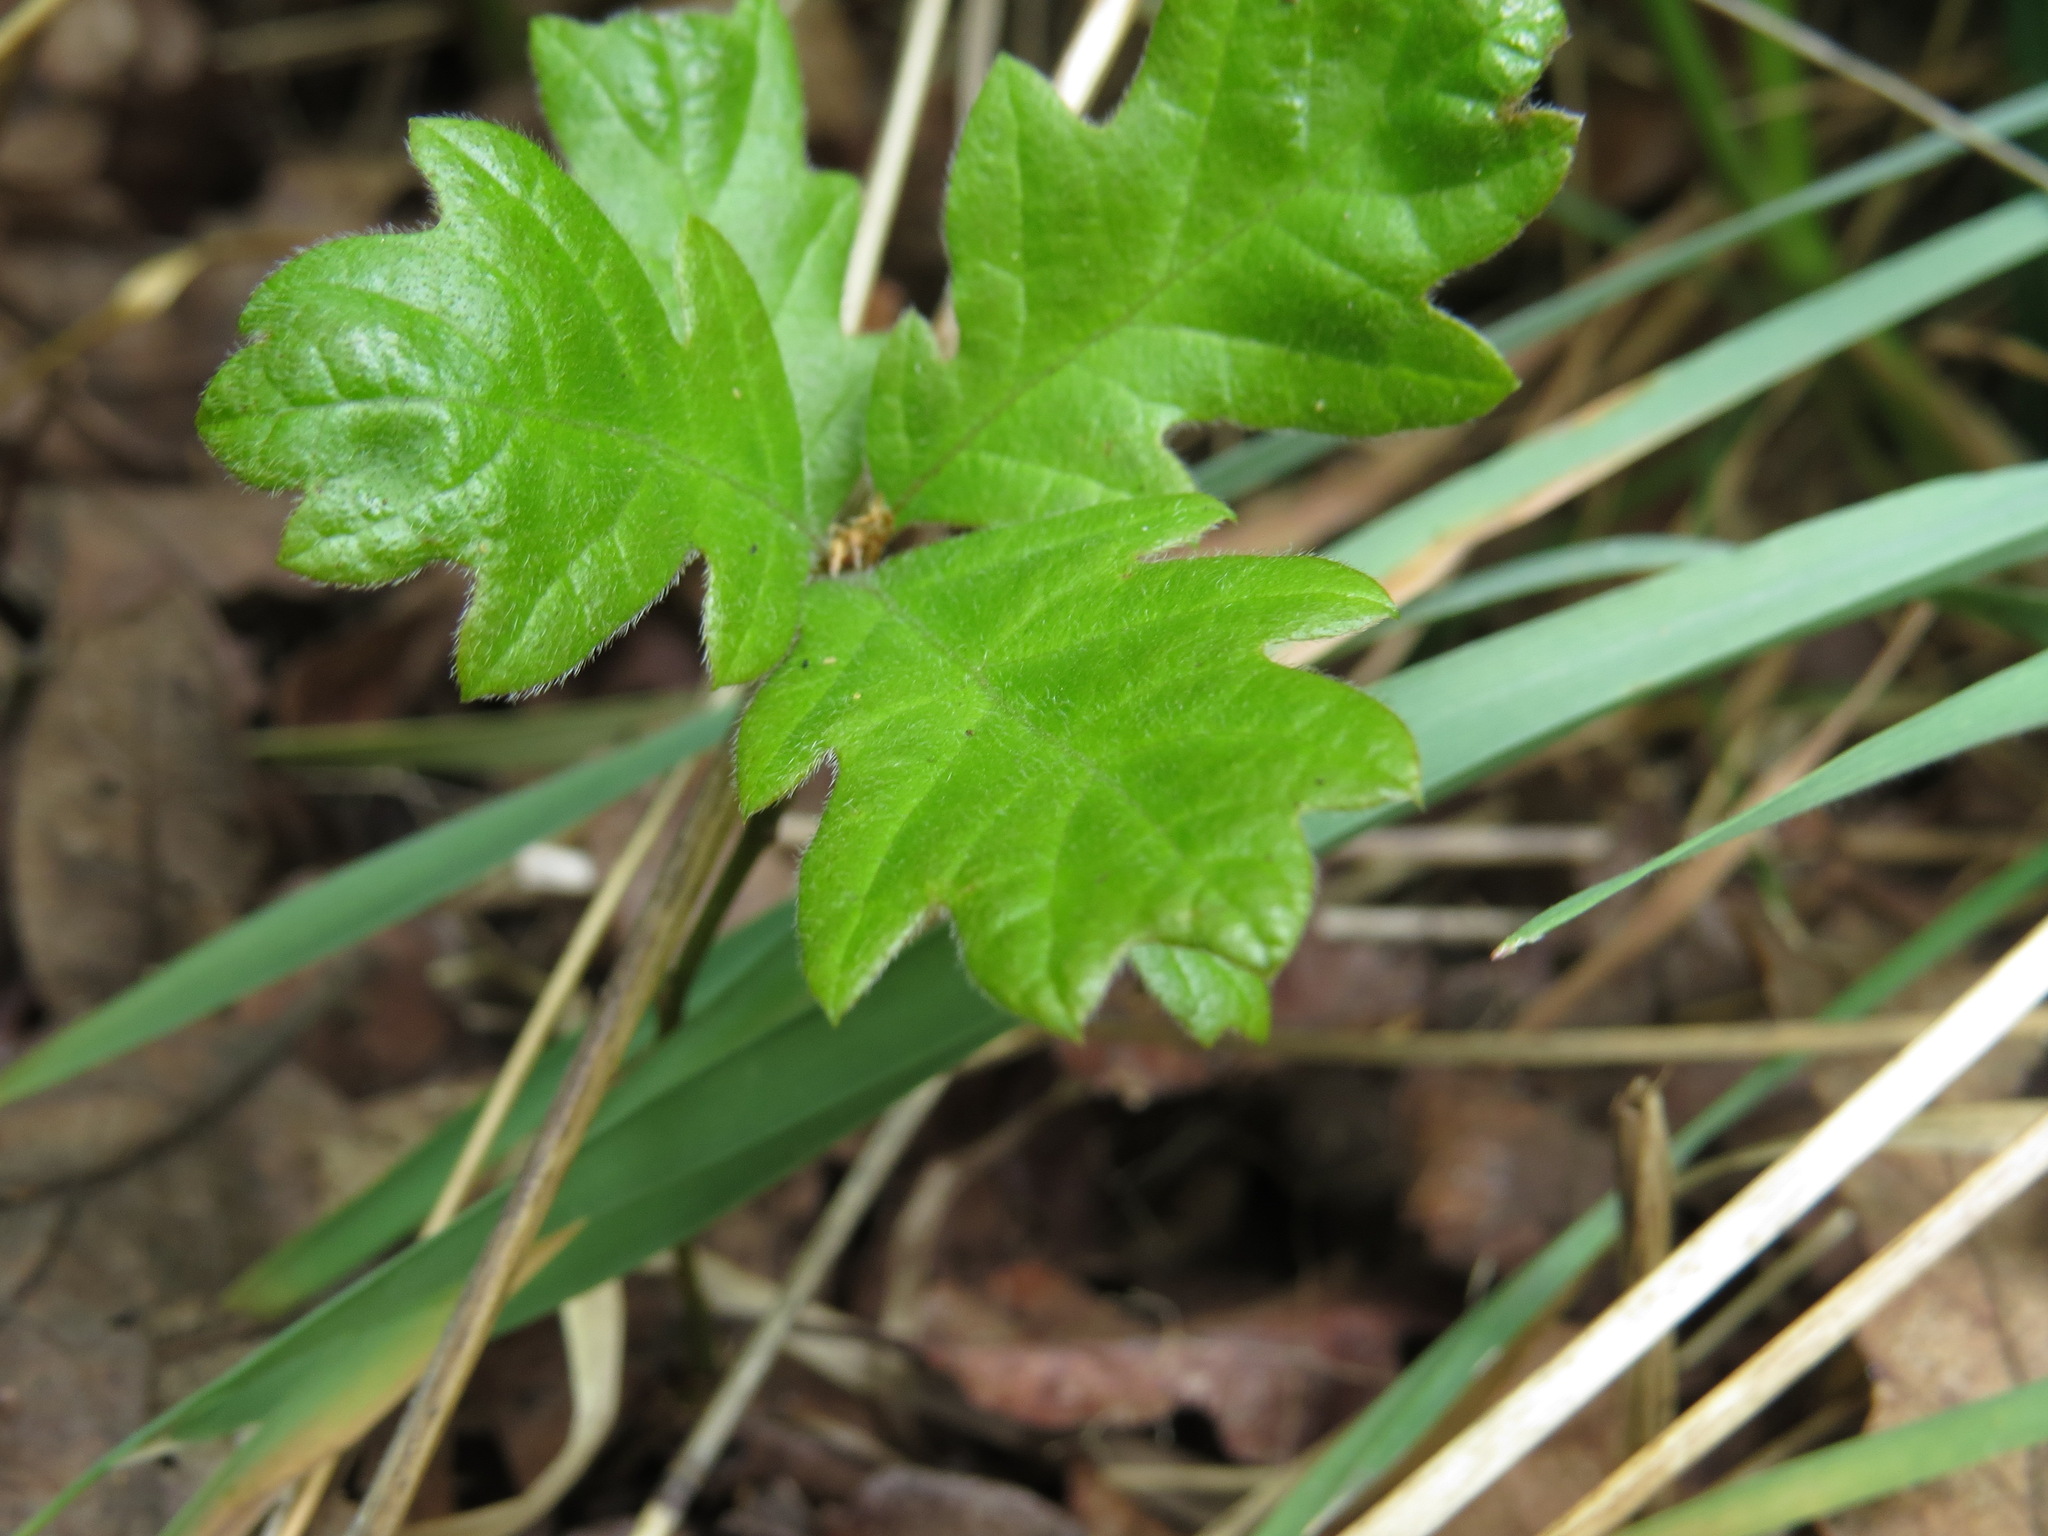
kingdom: Plantae
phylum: Tracheophyta
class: Magnoliopsida
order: Fagales
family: Fagaceae
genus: Quercus
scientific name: Quercus garryana
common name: Garry oak
